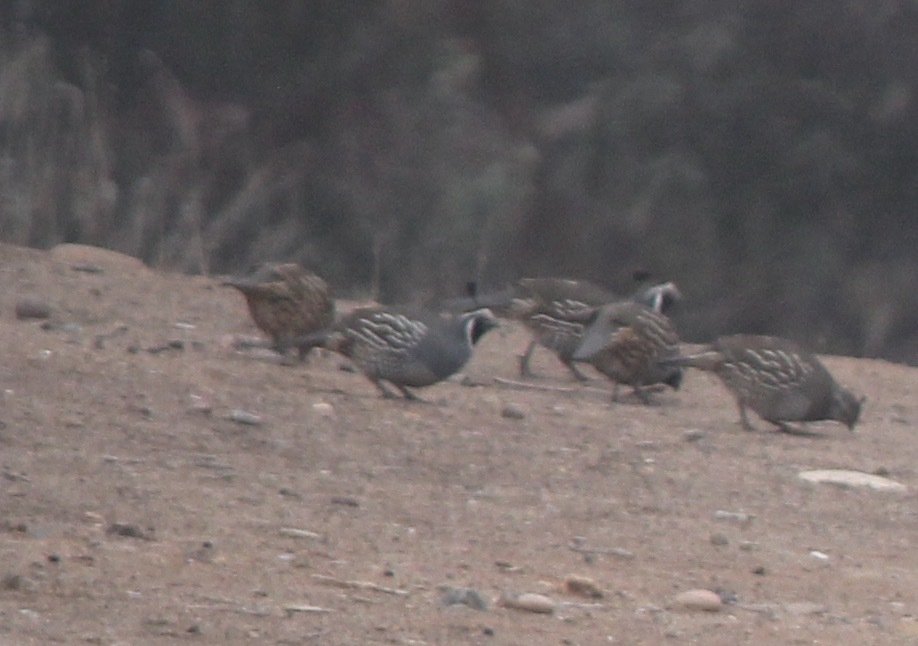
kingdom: Animalia
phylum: Chordata
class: Aves
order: Galliformes
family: Odontophoridae
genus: Callipepla
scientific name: Callipepla californica
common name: California quail
